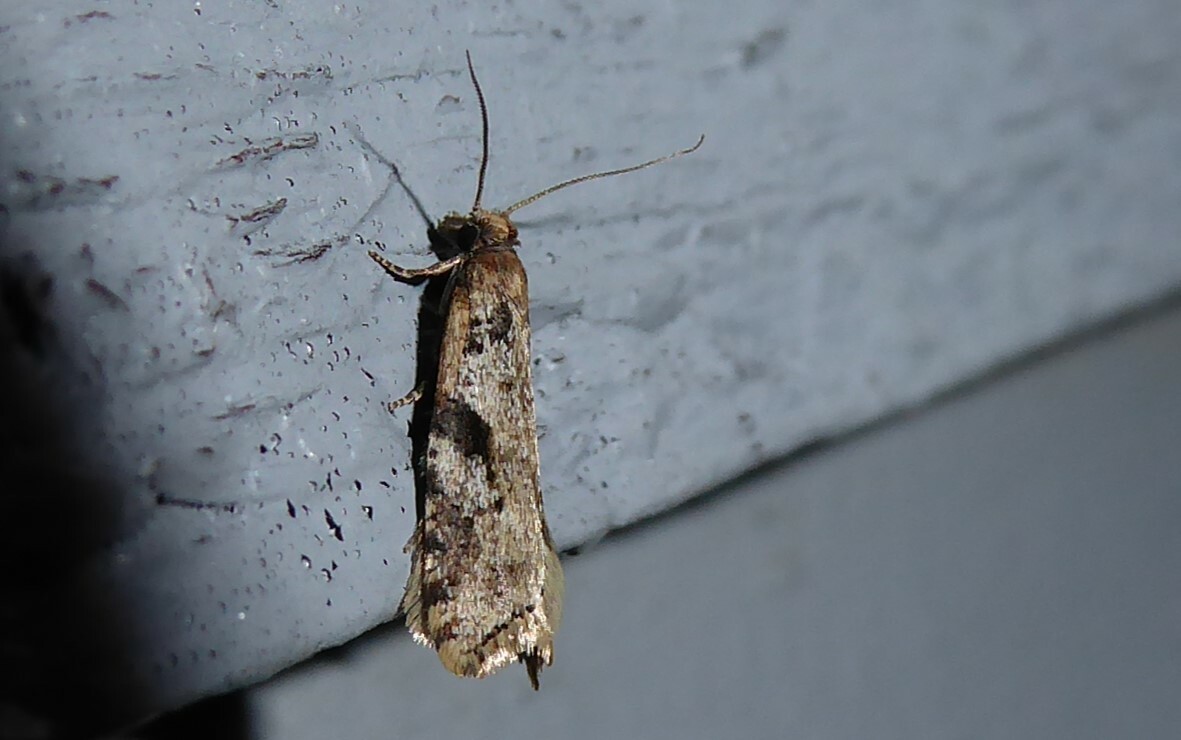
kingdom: Animalia
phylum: Arthropoda
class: Insecta
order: Lepidoptera
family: Tortricidae
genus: Capua
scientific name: Capua semiferana
